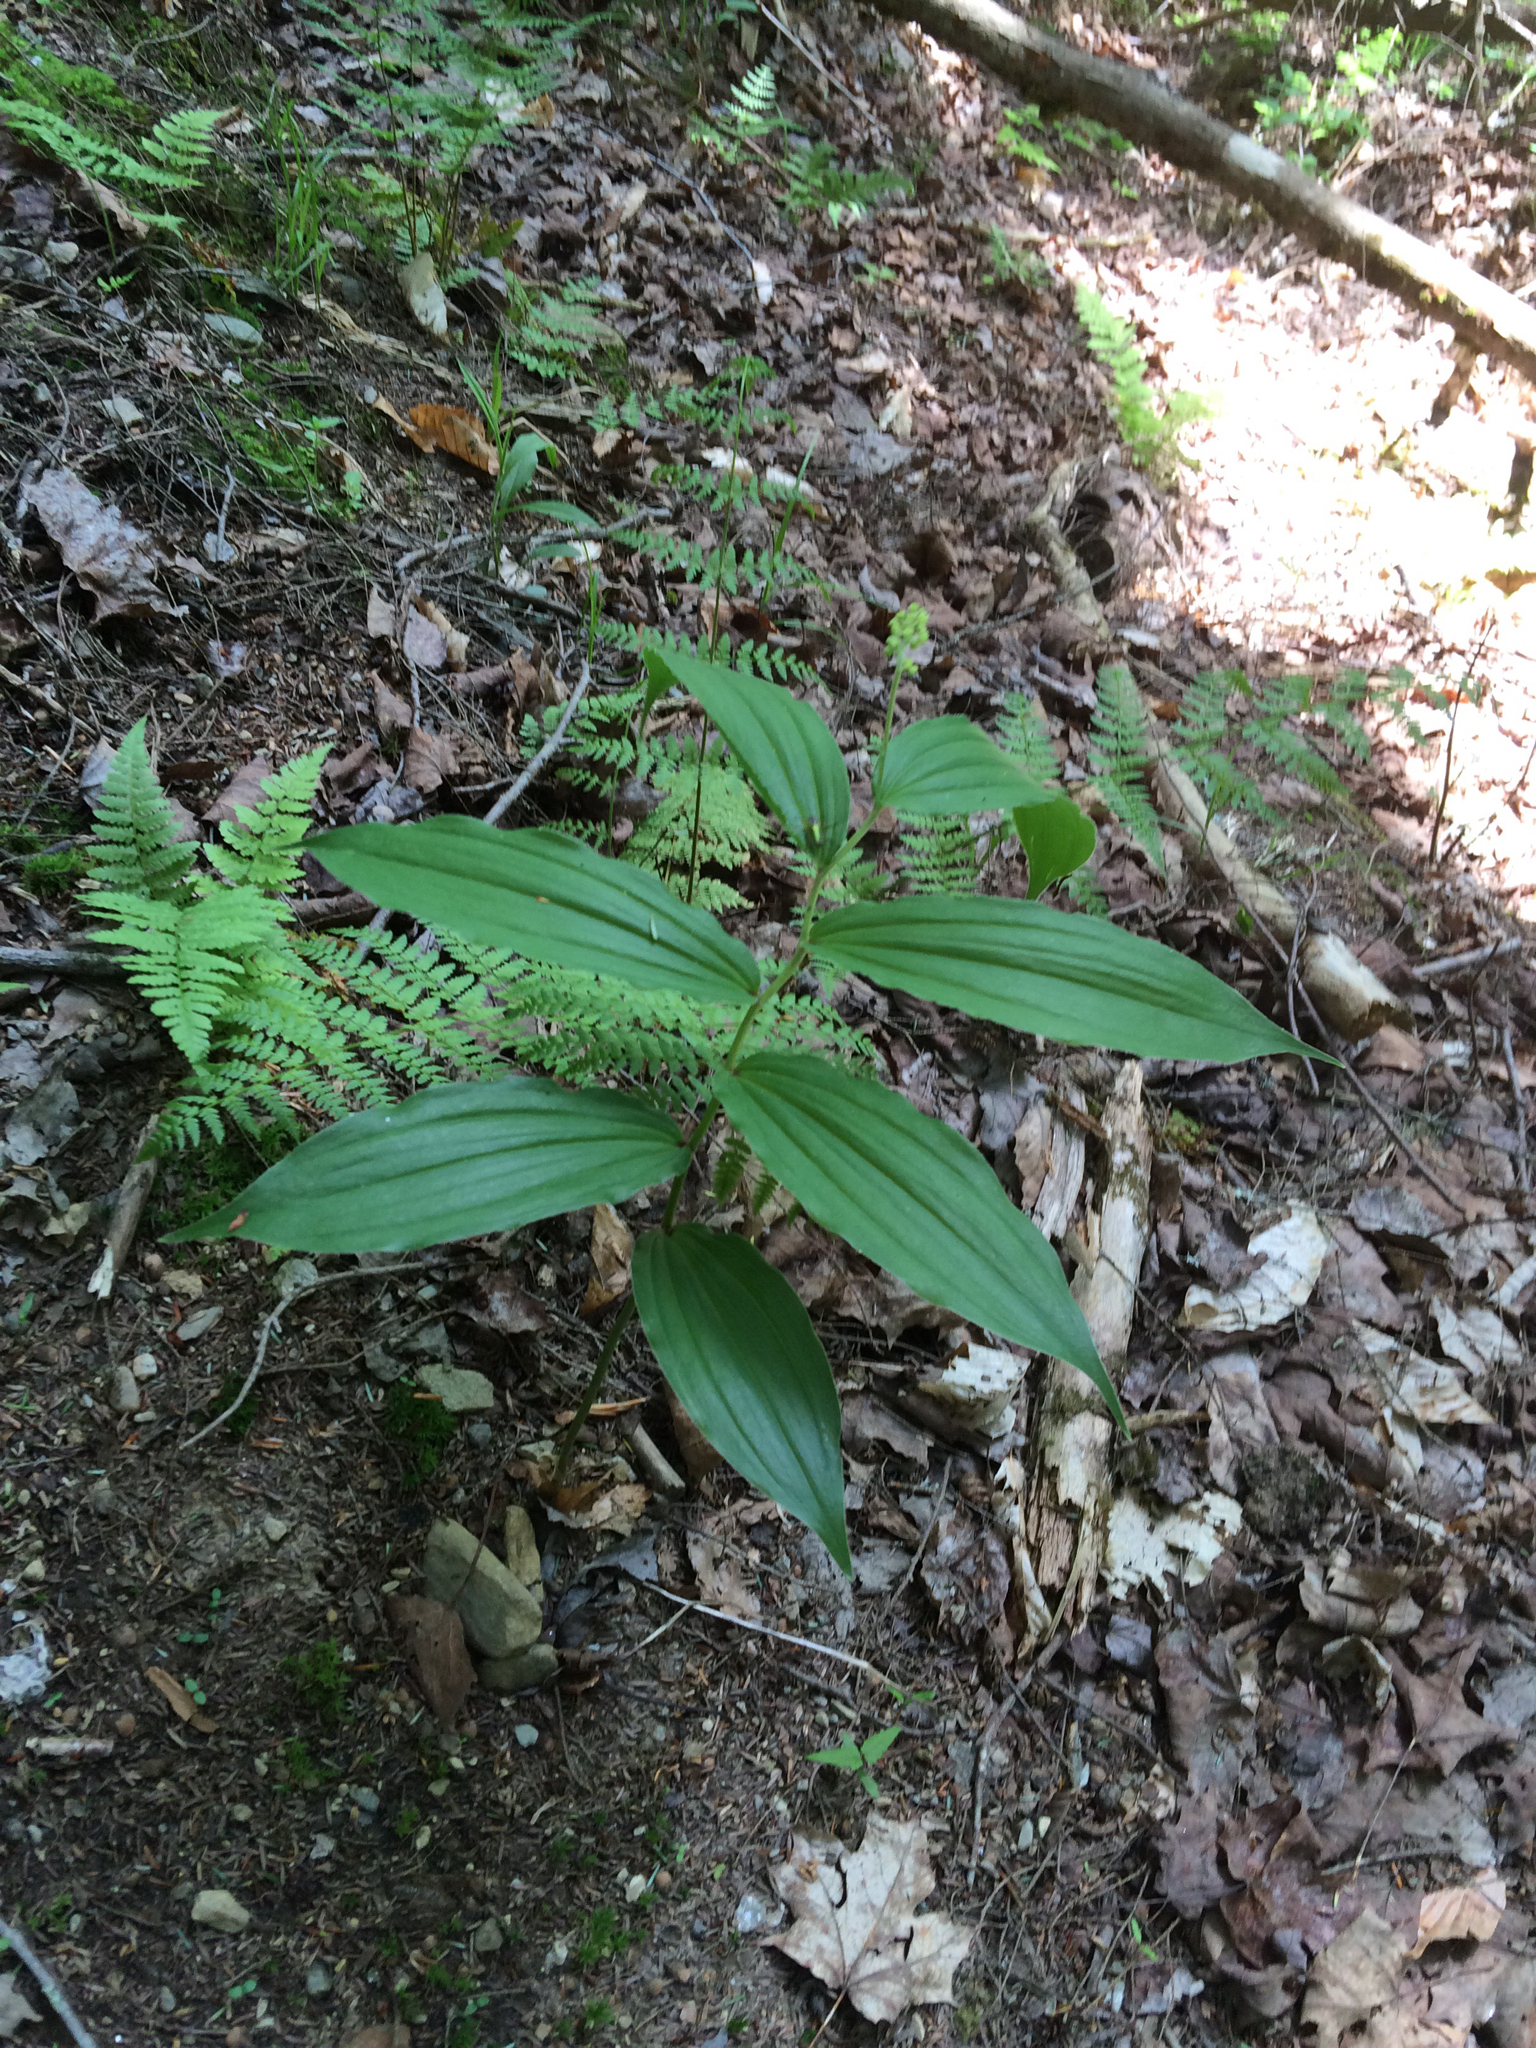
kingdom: Plantae
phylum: Tracheophyta
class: Liliopsida
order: Asparagales
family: Asparagaceae
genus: Maianthemum
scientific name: Maianthemum racemosum
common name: False spikenard
